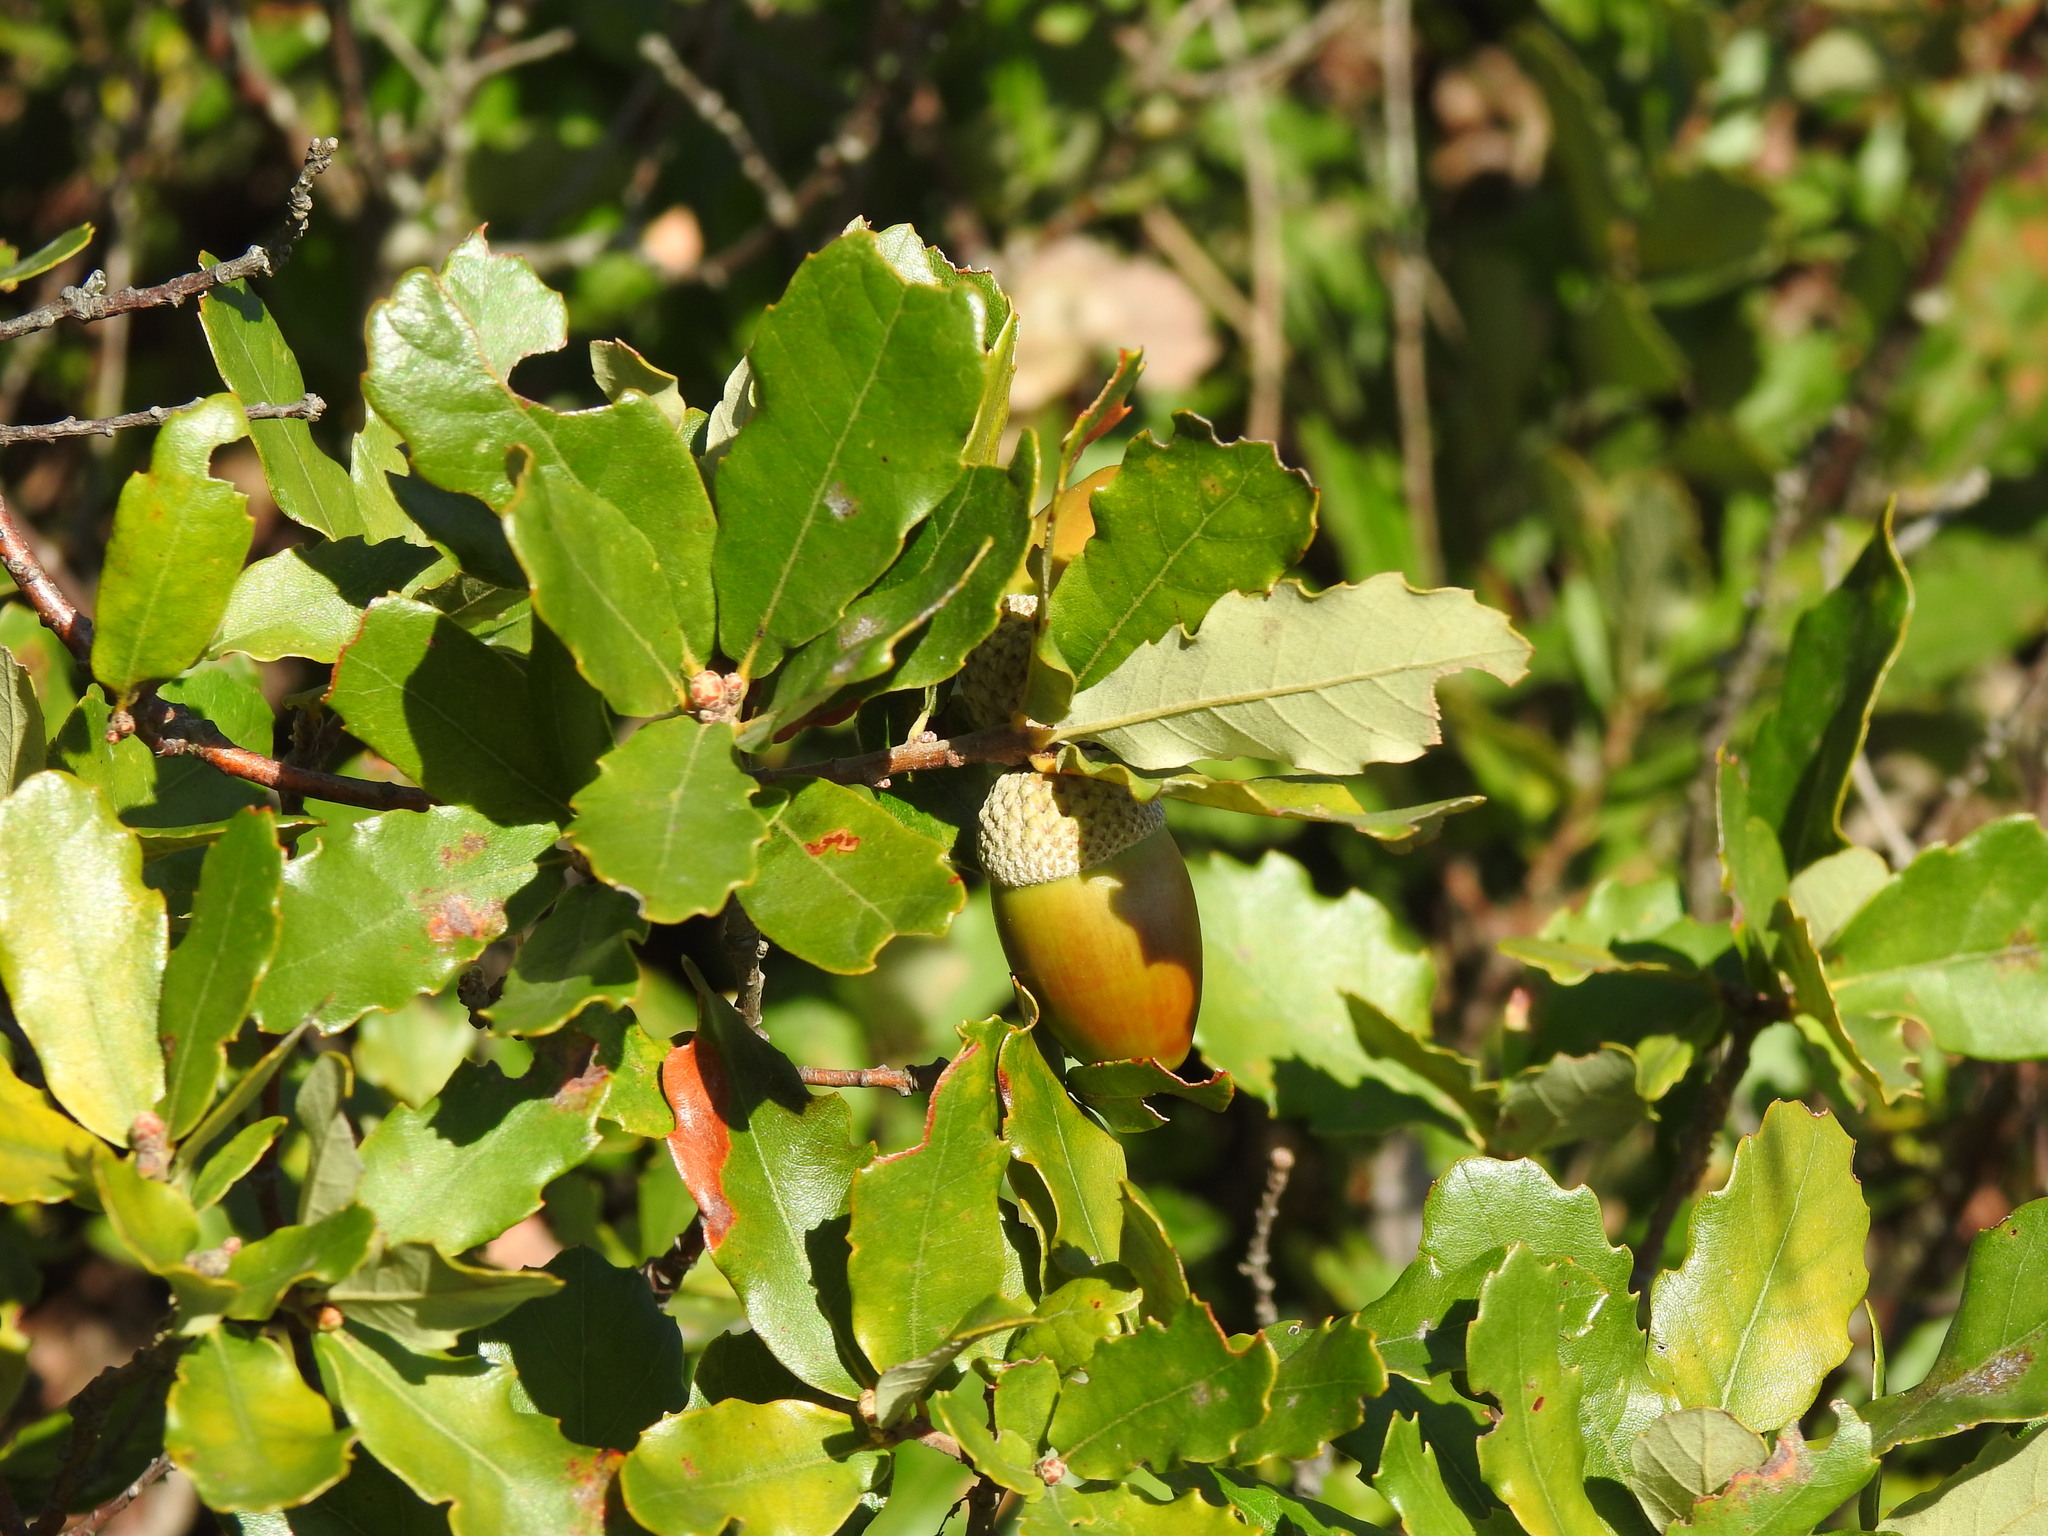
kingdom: Plantae
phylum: Tracheophyta
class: Magnoliopsida
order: Fagales
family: Fagaceae
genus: Quercus
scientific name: Quercus lusitanica
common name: Scrub gall oak
